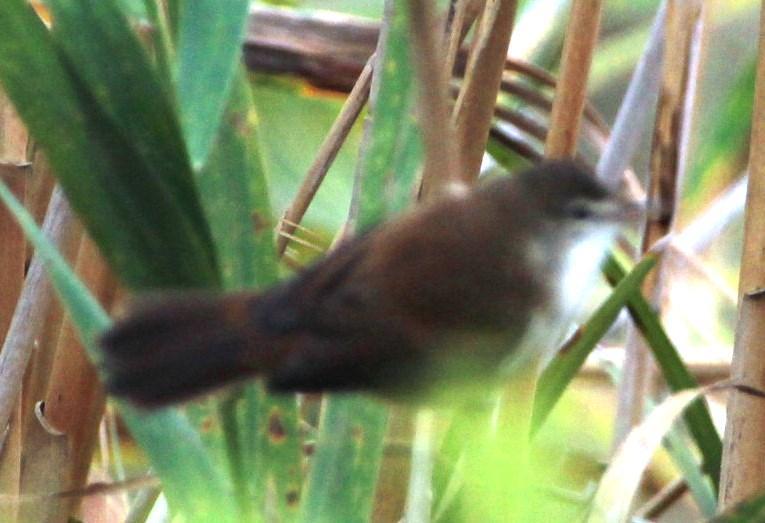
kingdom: Animalia
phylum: Chordata
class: Aves
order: Passeriformes
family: Locustellidae
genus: Bradypterus
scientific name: Bradypterus baboecala
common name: Little rush warbler
